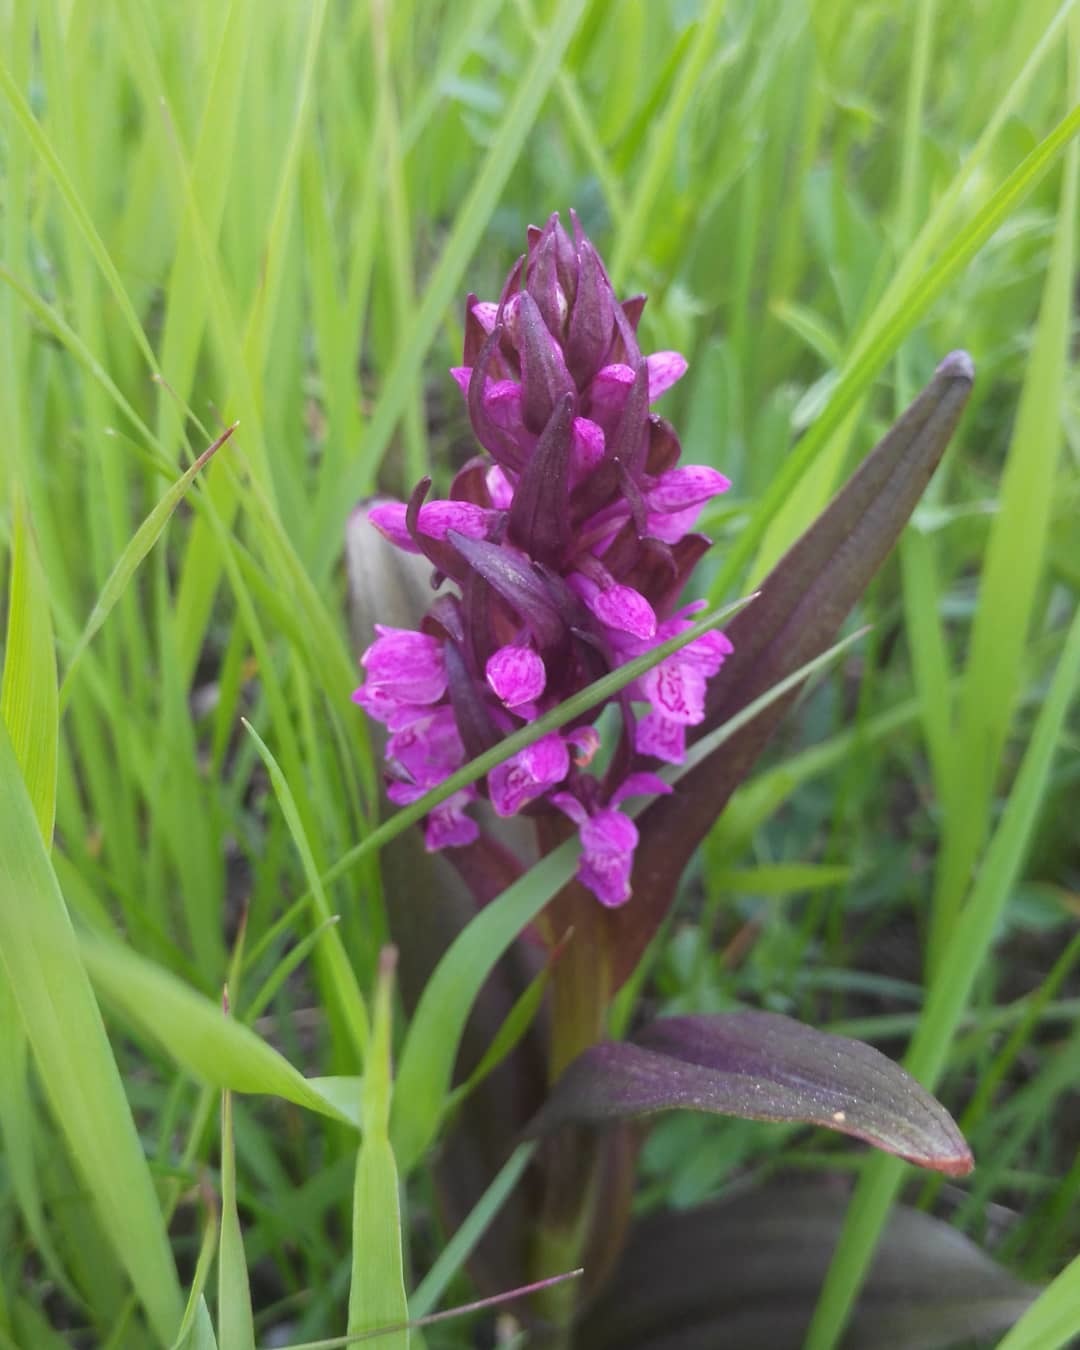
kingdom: Plantae
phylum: Tracheophyta
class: Liliopsida
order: Asparagales
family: Orchidaceae
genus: Dactylorhiza
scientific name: Dactylorhiza incarnata
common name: Early marsh-orchid
